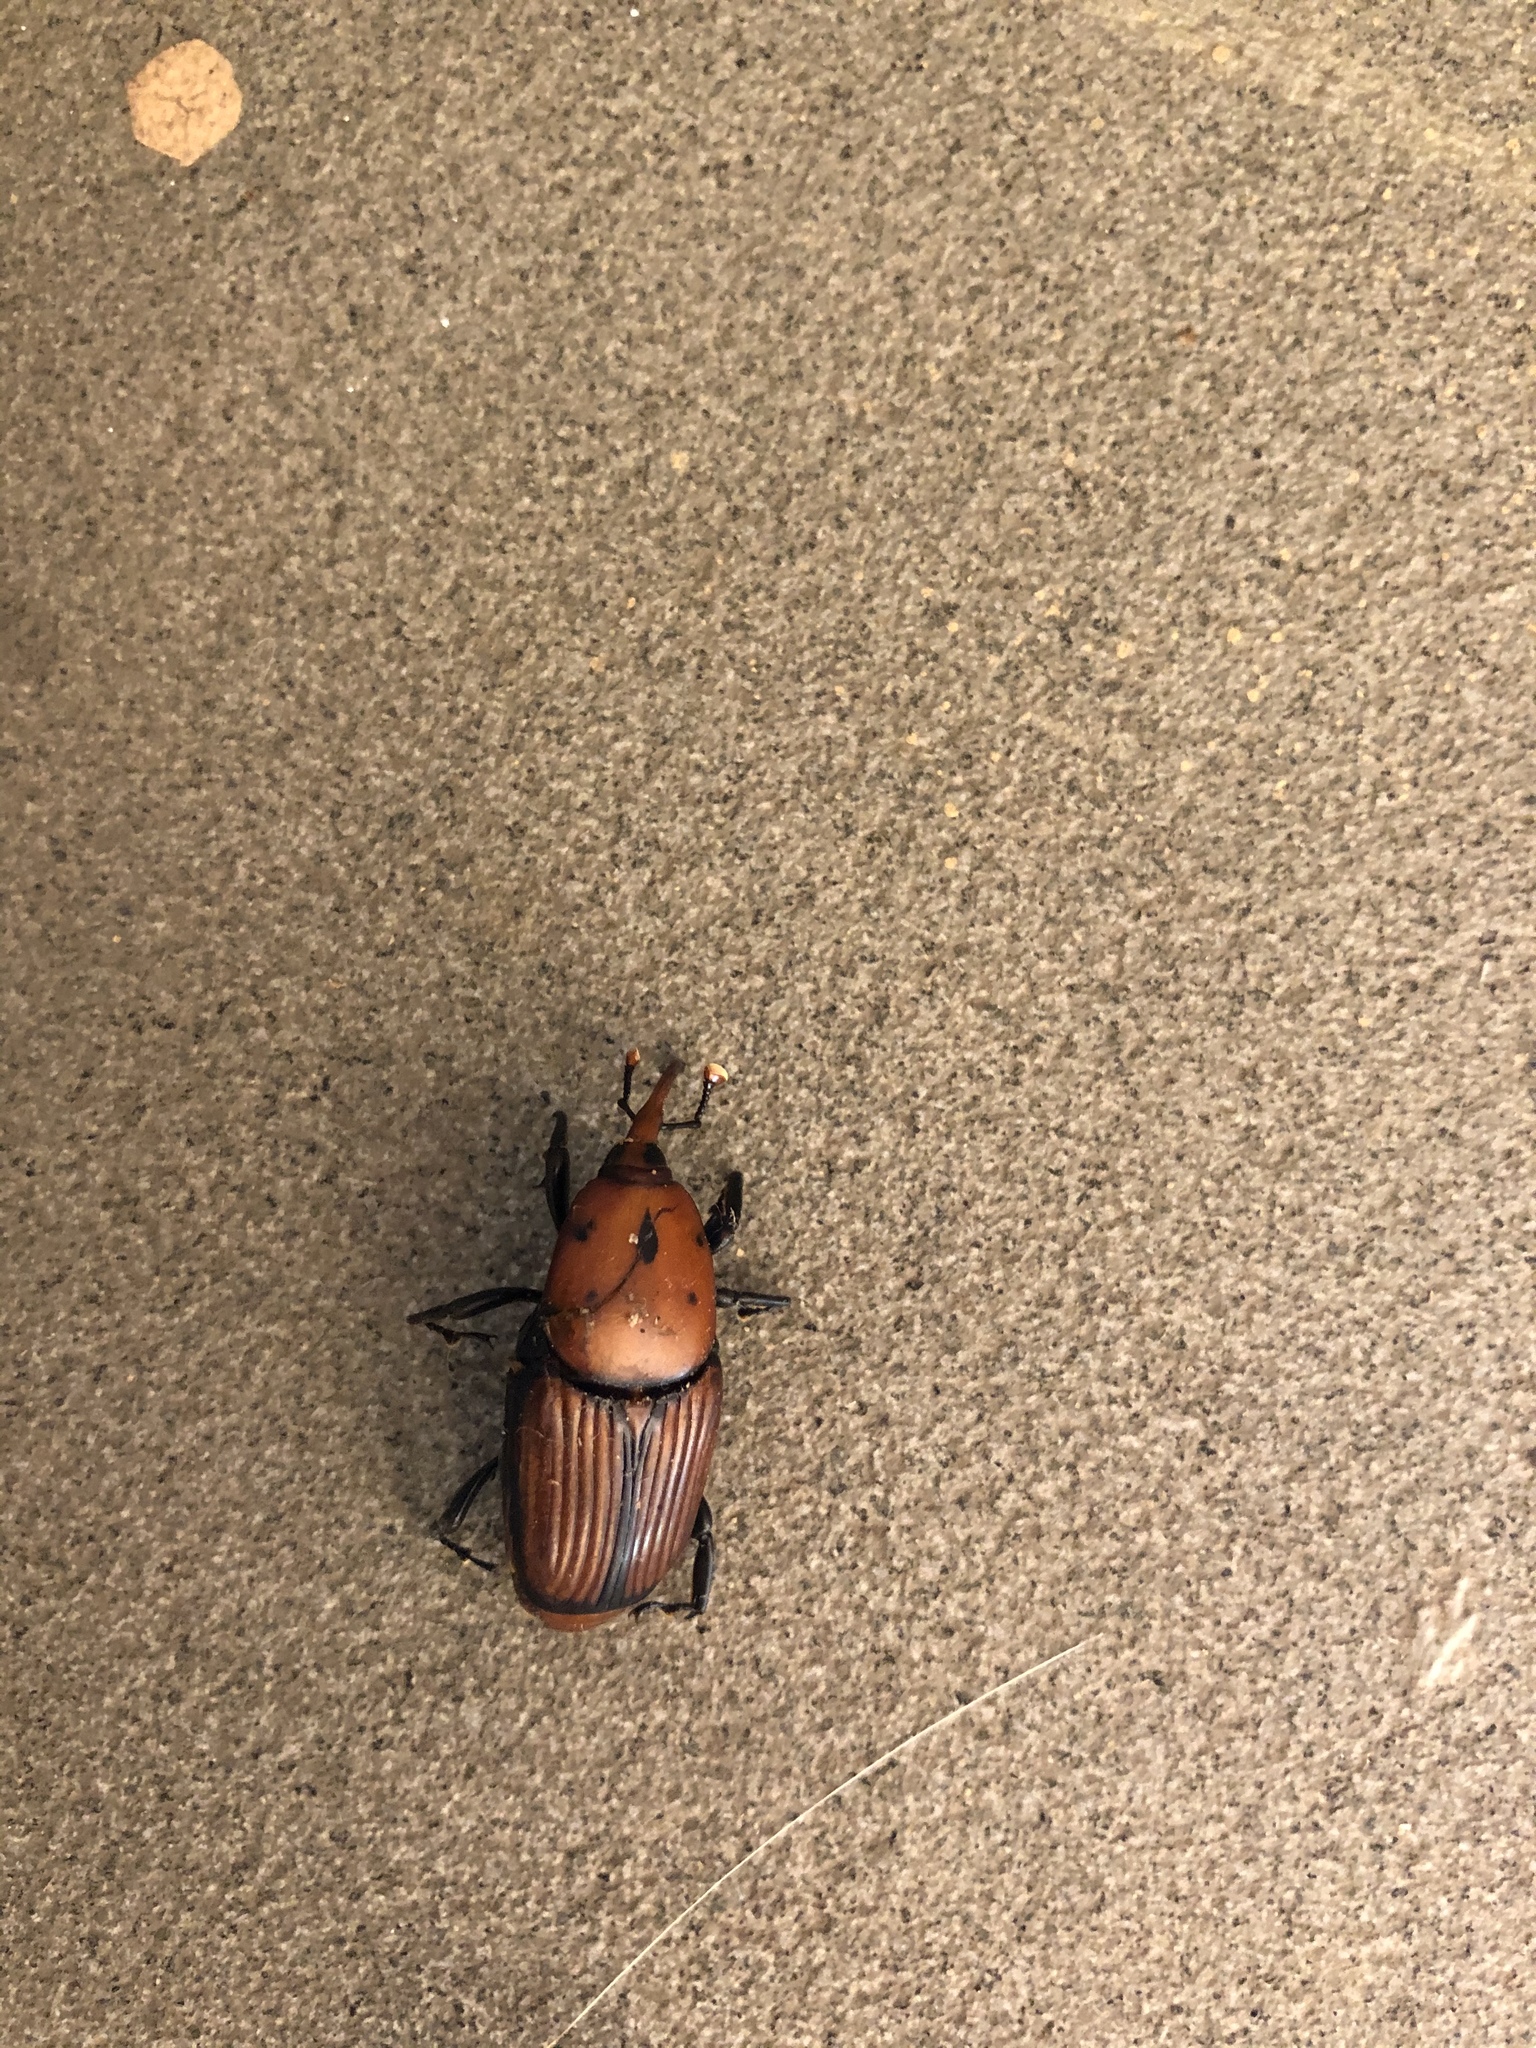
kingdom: Animalia
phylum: Arthropoda
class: Insecta
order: Coleoptera
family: Dryophthoridae
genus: Rhynchophorus
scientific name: Rhynchophorus ferrugineus
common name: Red palm weevil
